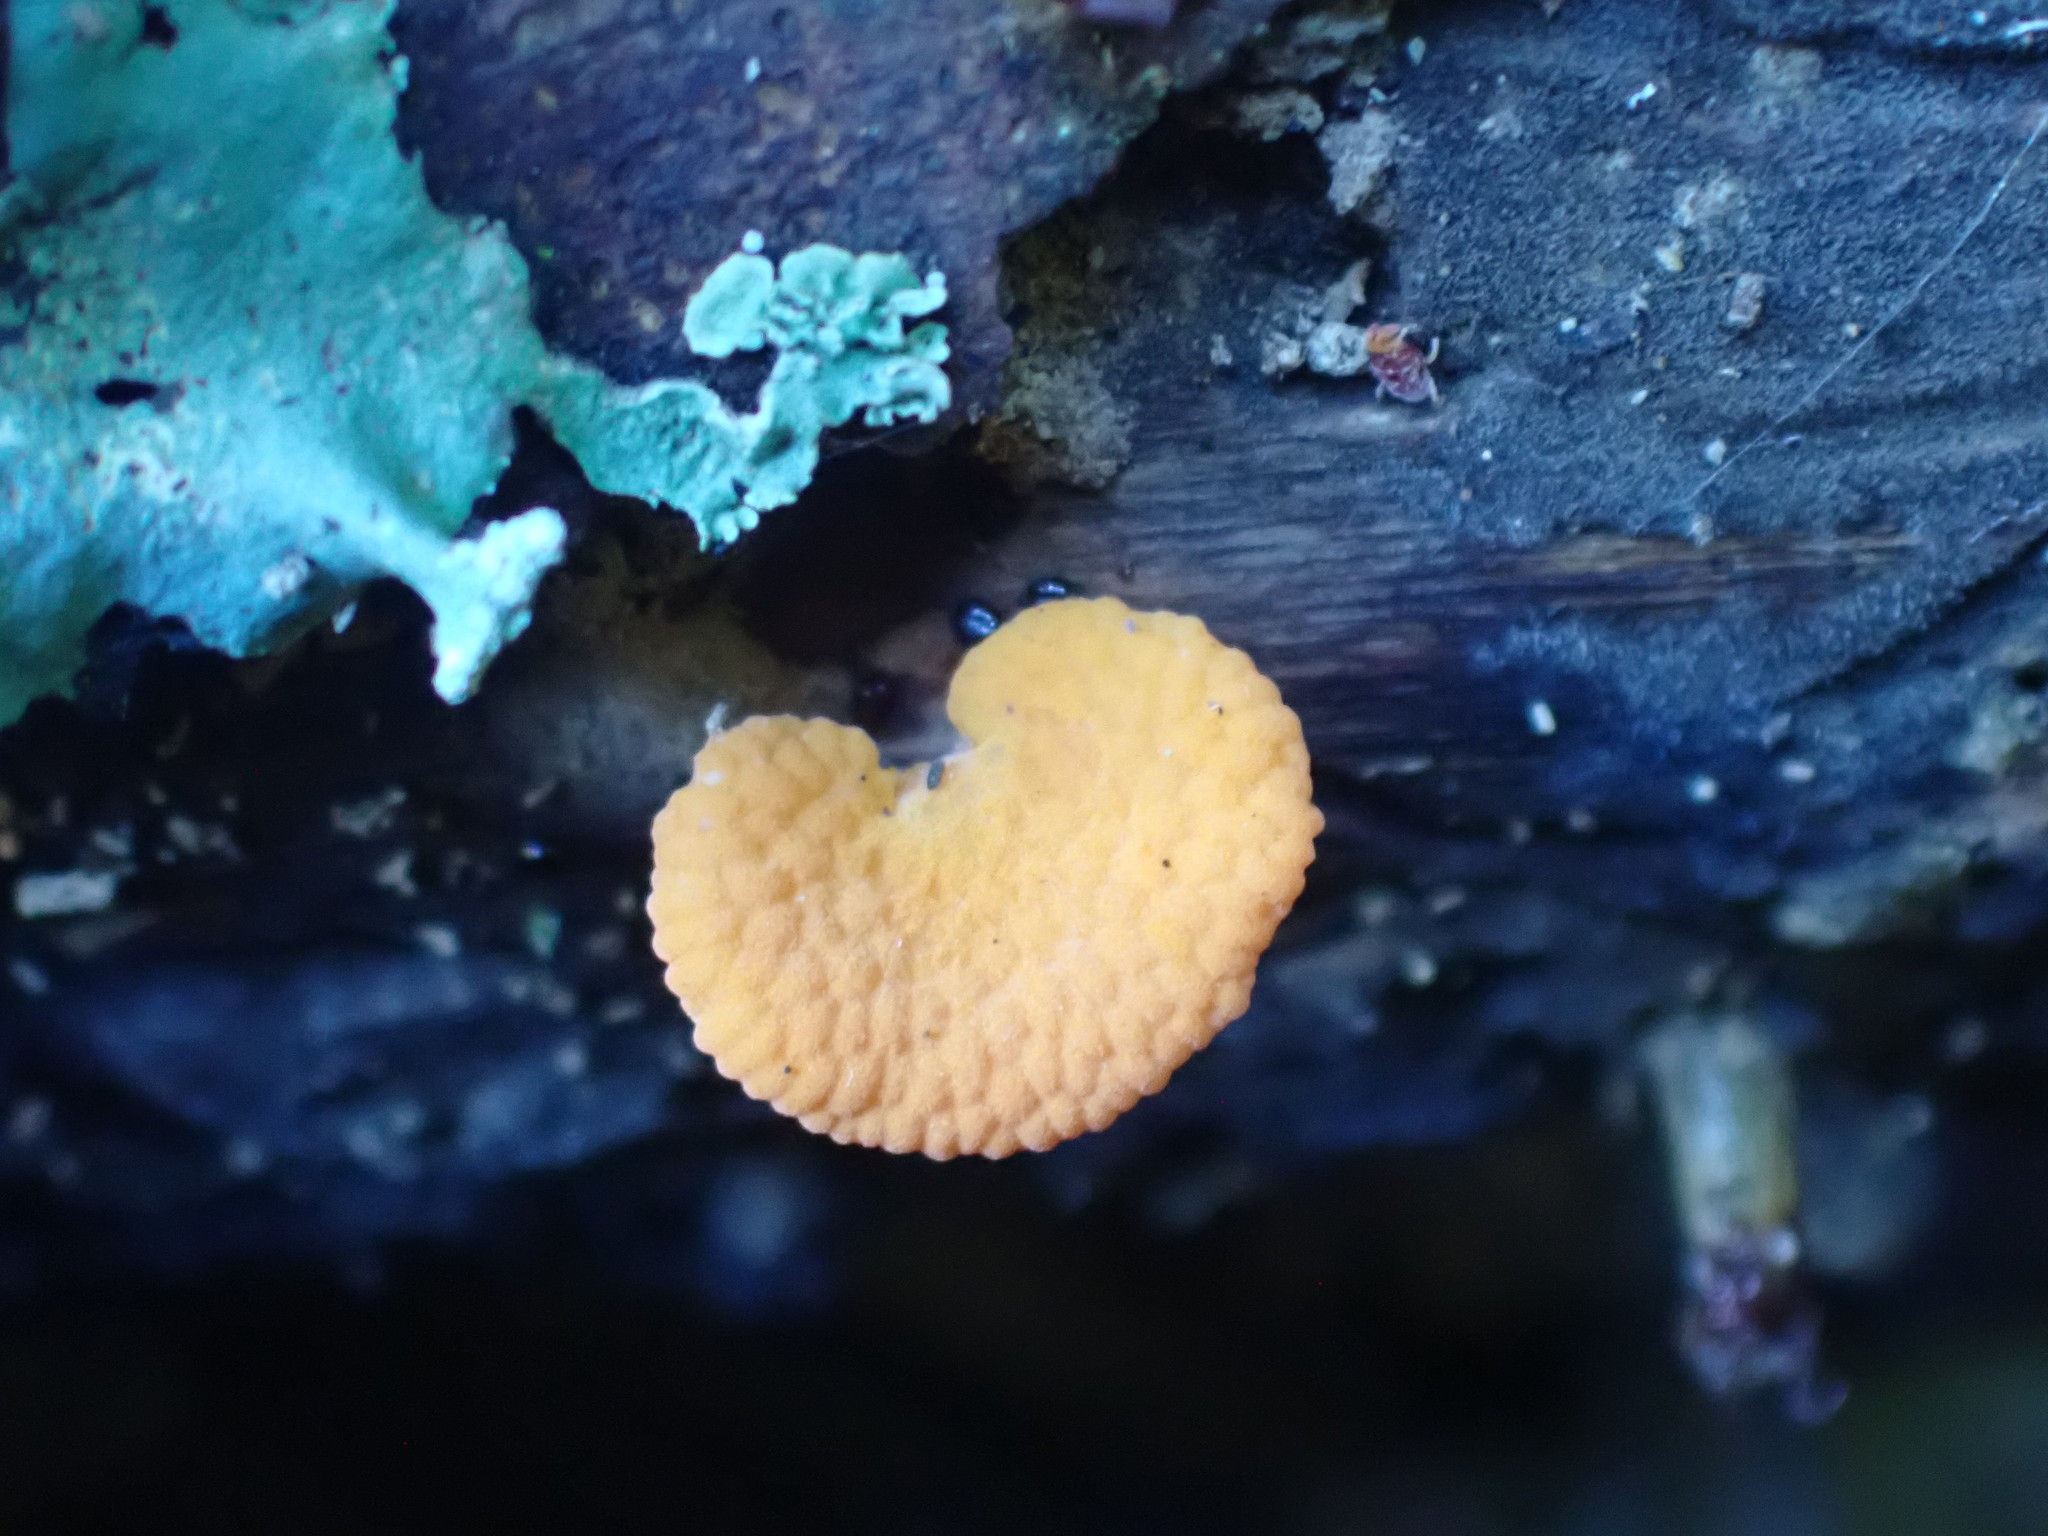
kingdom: Fungi
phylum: Basidiomycota
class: Agaricomycetes
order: Agaricales
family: Mycenaceae
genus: Favolaschia
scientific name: Favolaschia claudopus
